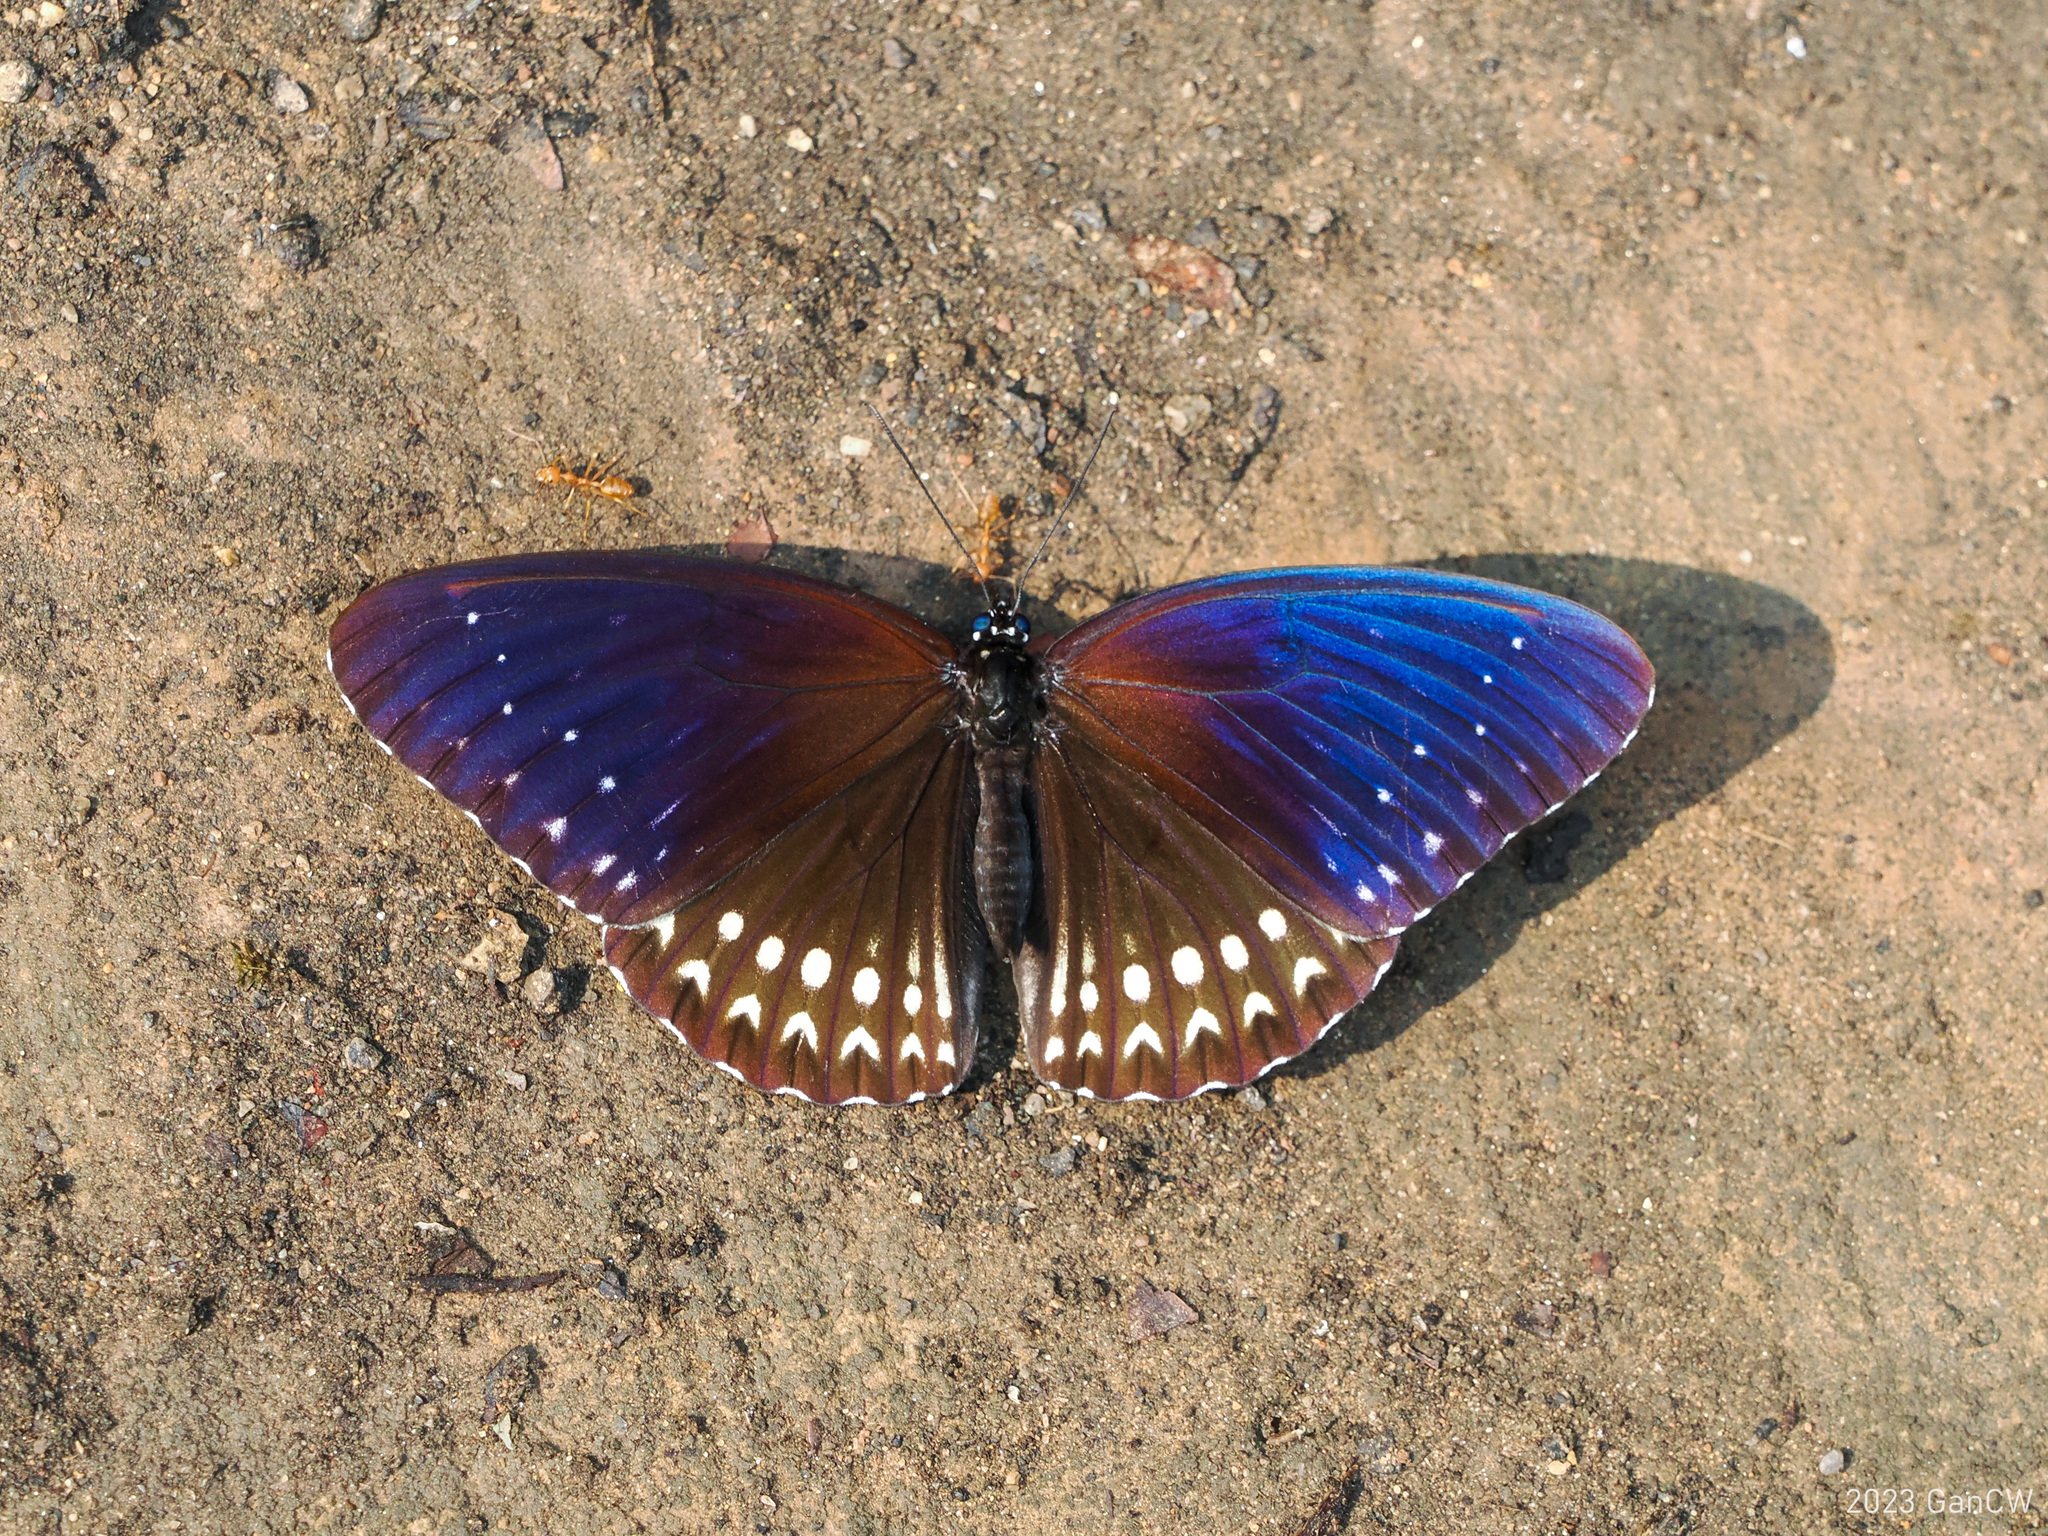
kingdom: Animalia
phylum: Arthropoda
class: Insecta
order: Lepidoptera
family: Nymphalidae
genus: Penthema
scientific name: Penthema darlisa
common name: Three-coloured kaiser
